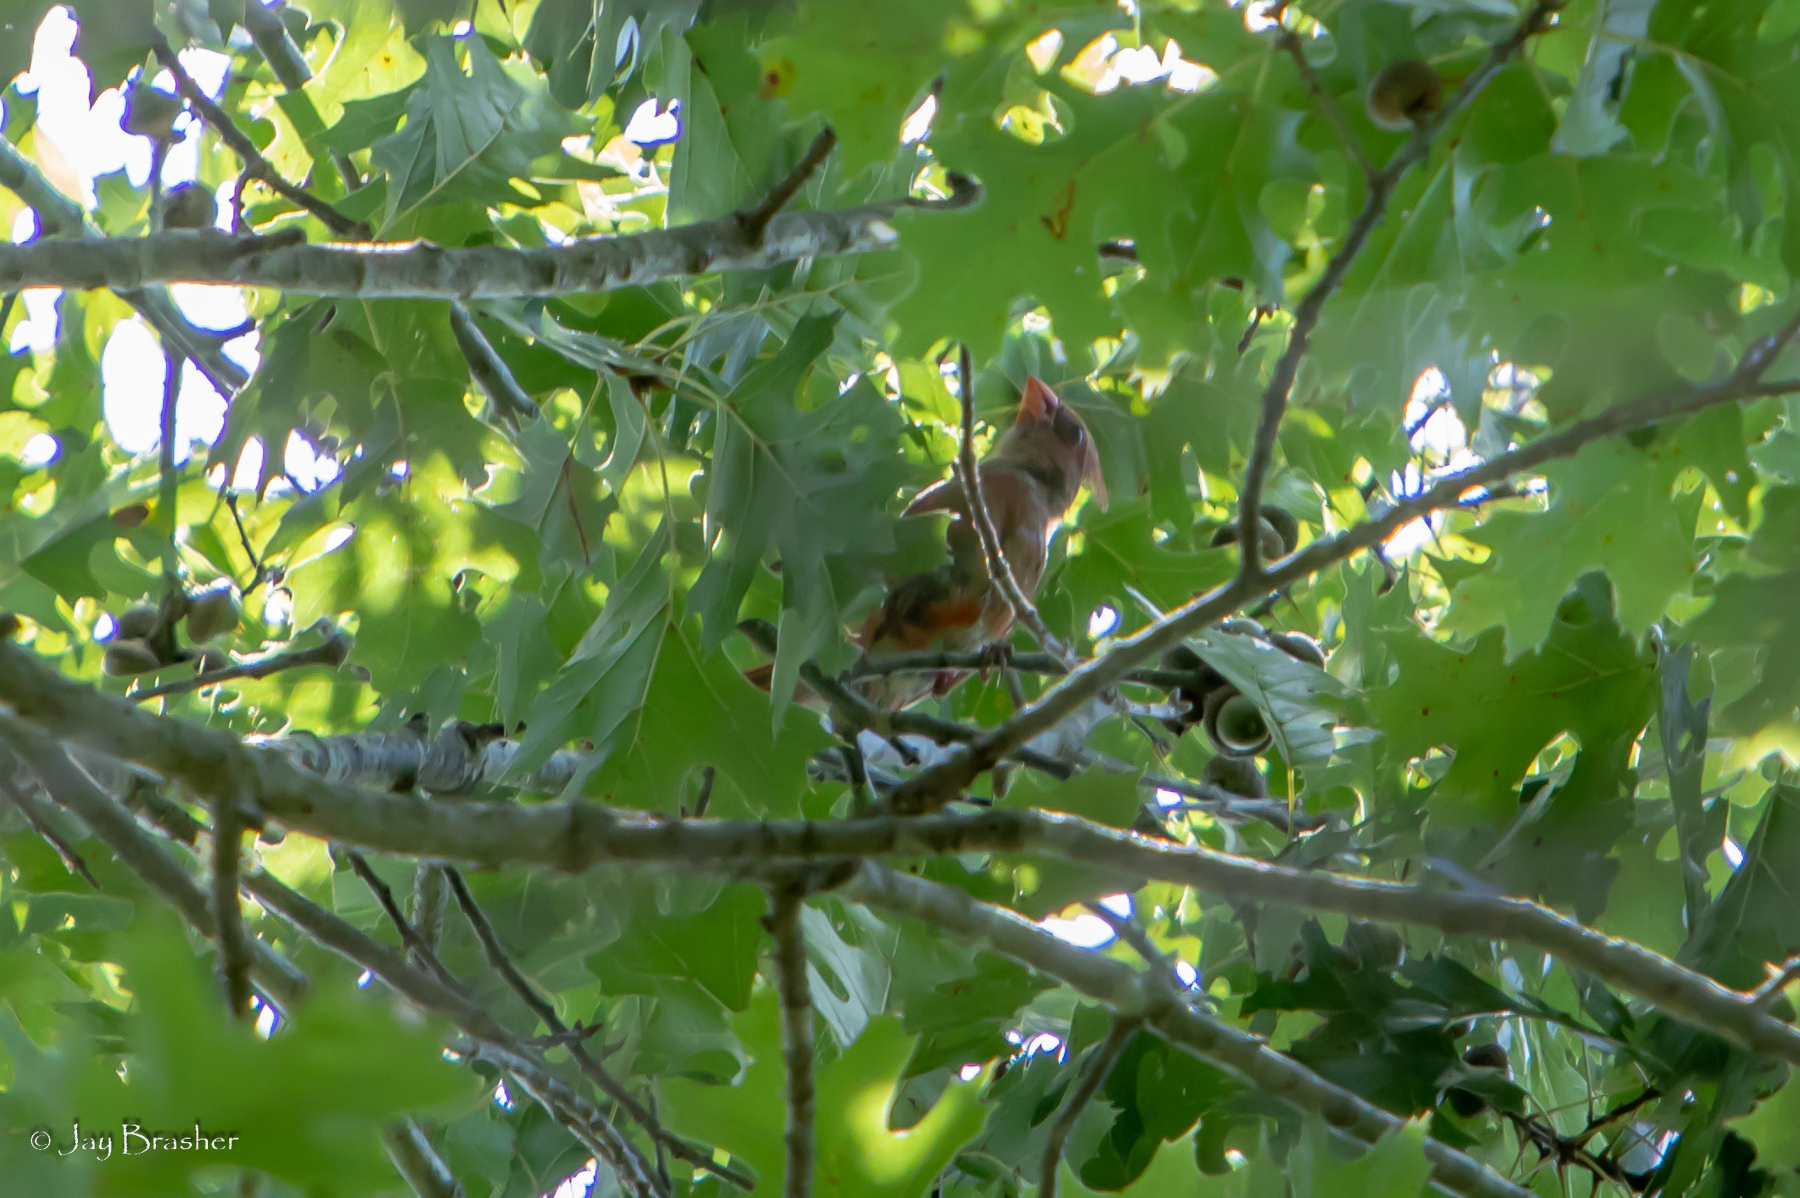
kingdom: Animalia
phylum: Chordata
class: Aves
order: Passeriformes
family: Cardinalidae
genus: Cardinalis
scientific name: Cardinalis cardinalis
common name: Northern cardinal
